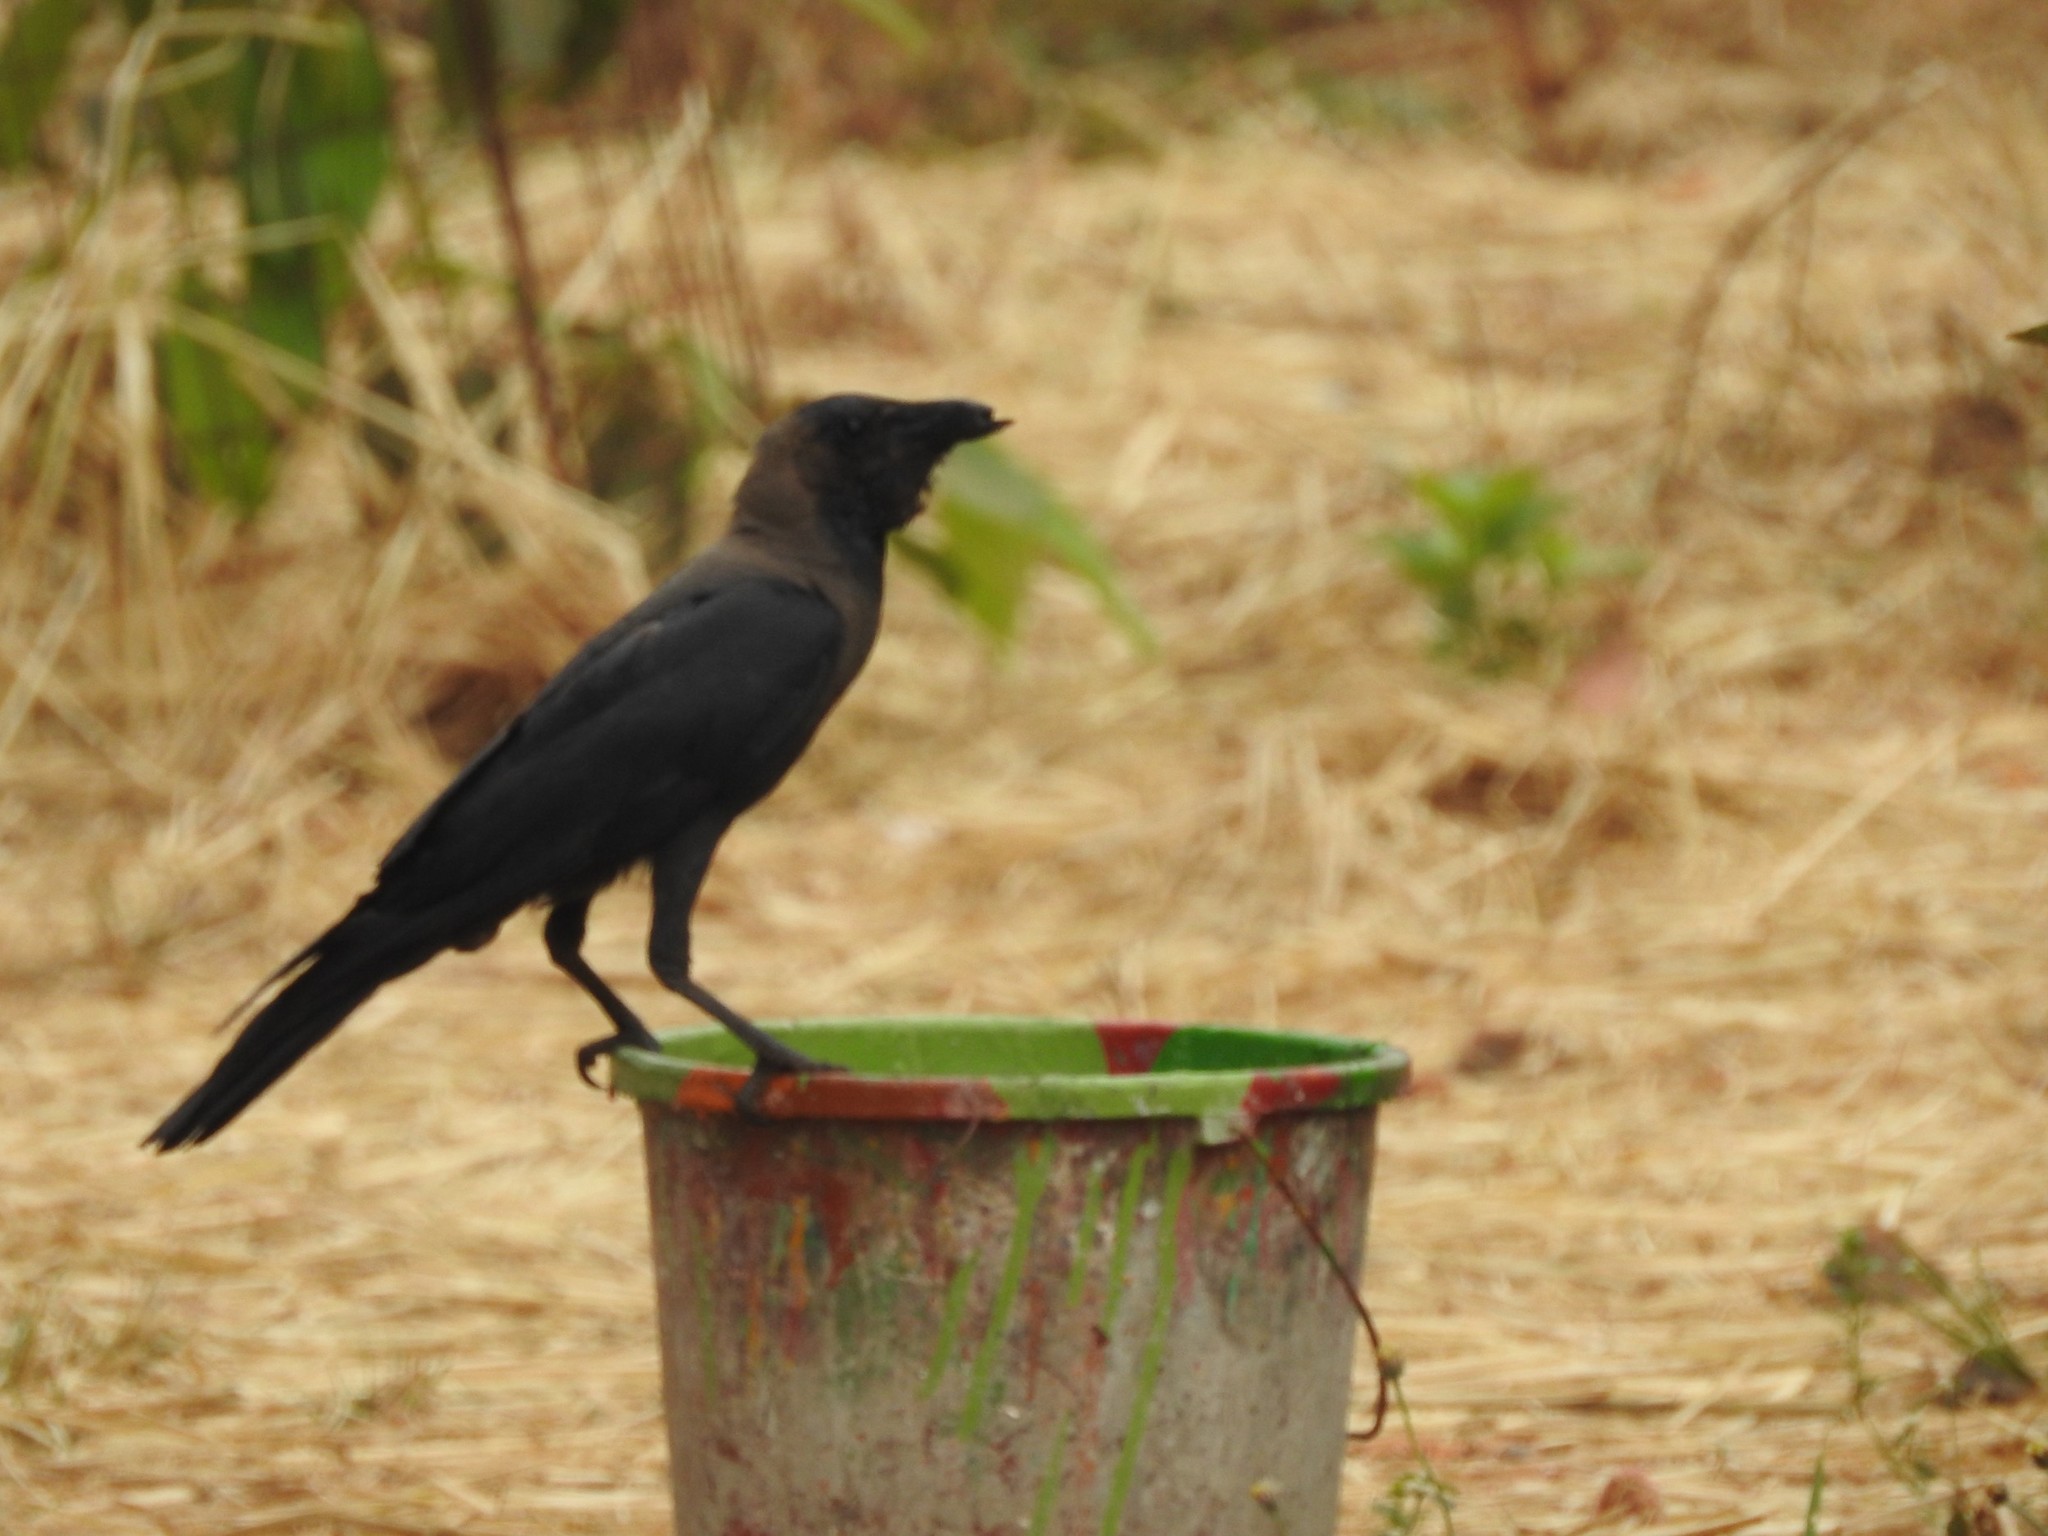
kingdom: Animalia
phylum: Chordata
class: Aves
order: Passeriformes
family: Corvidae
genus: Corvus
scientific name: Corvus splendens
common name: House crow
